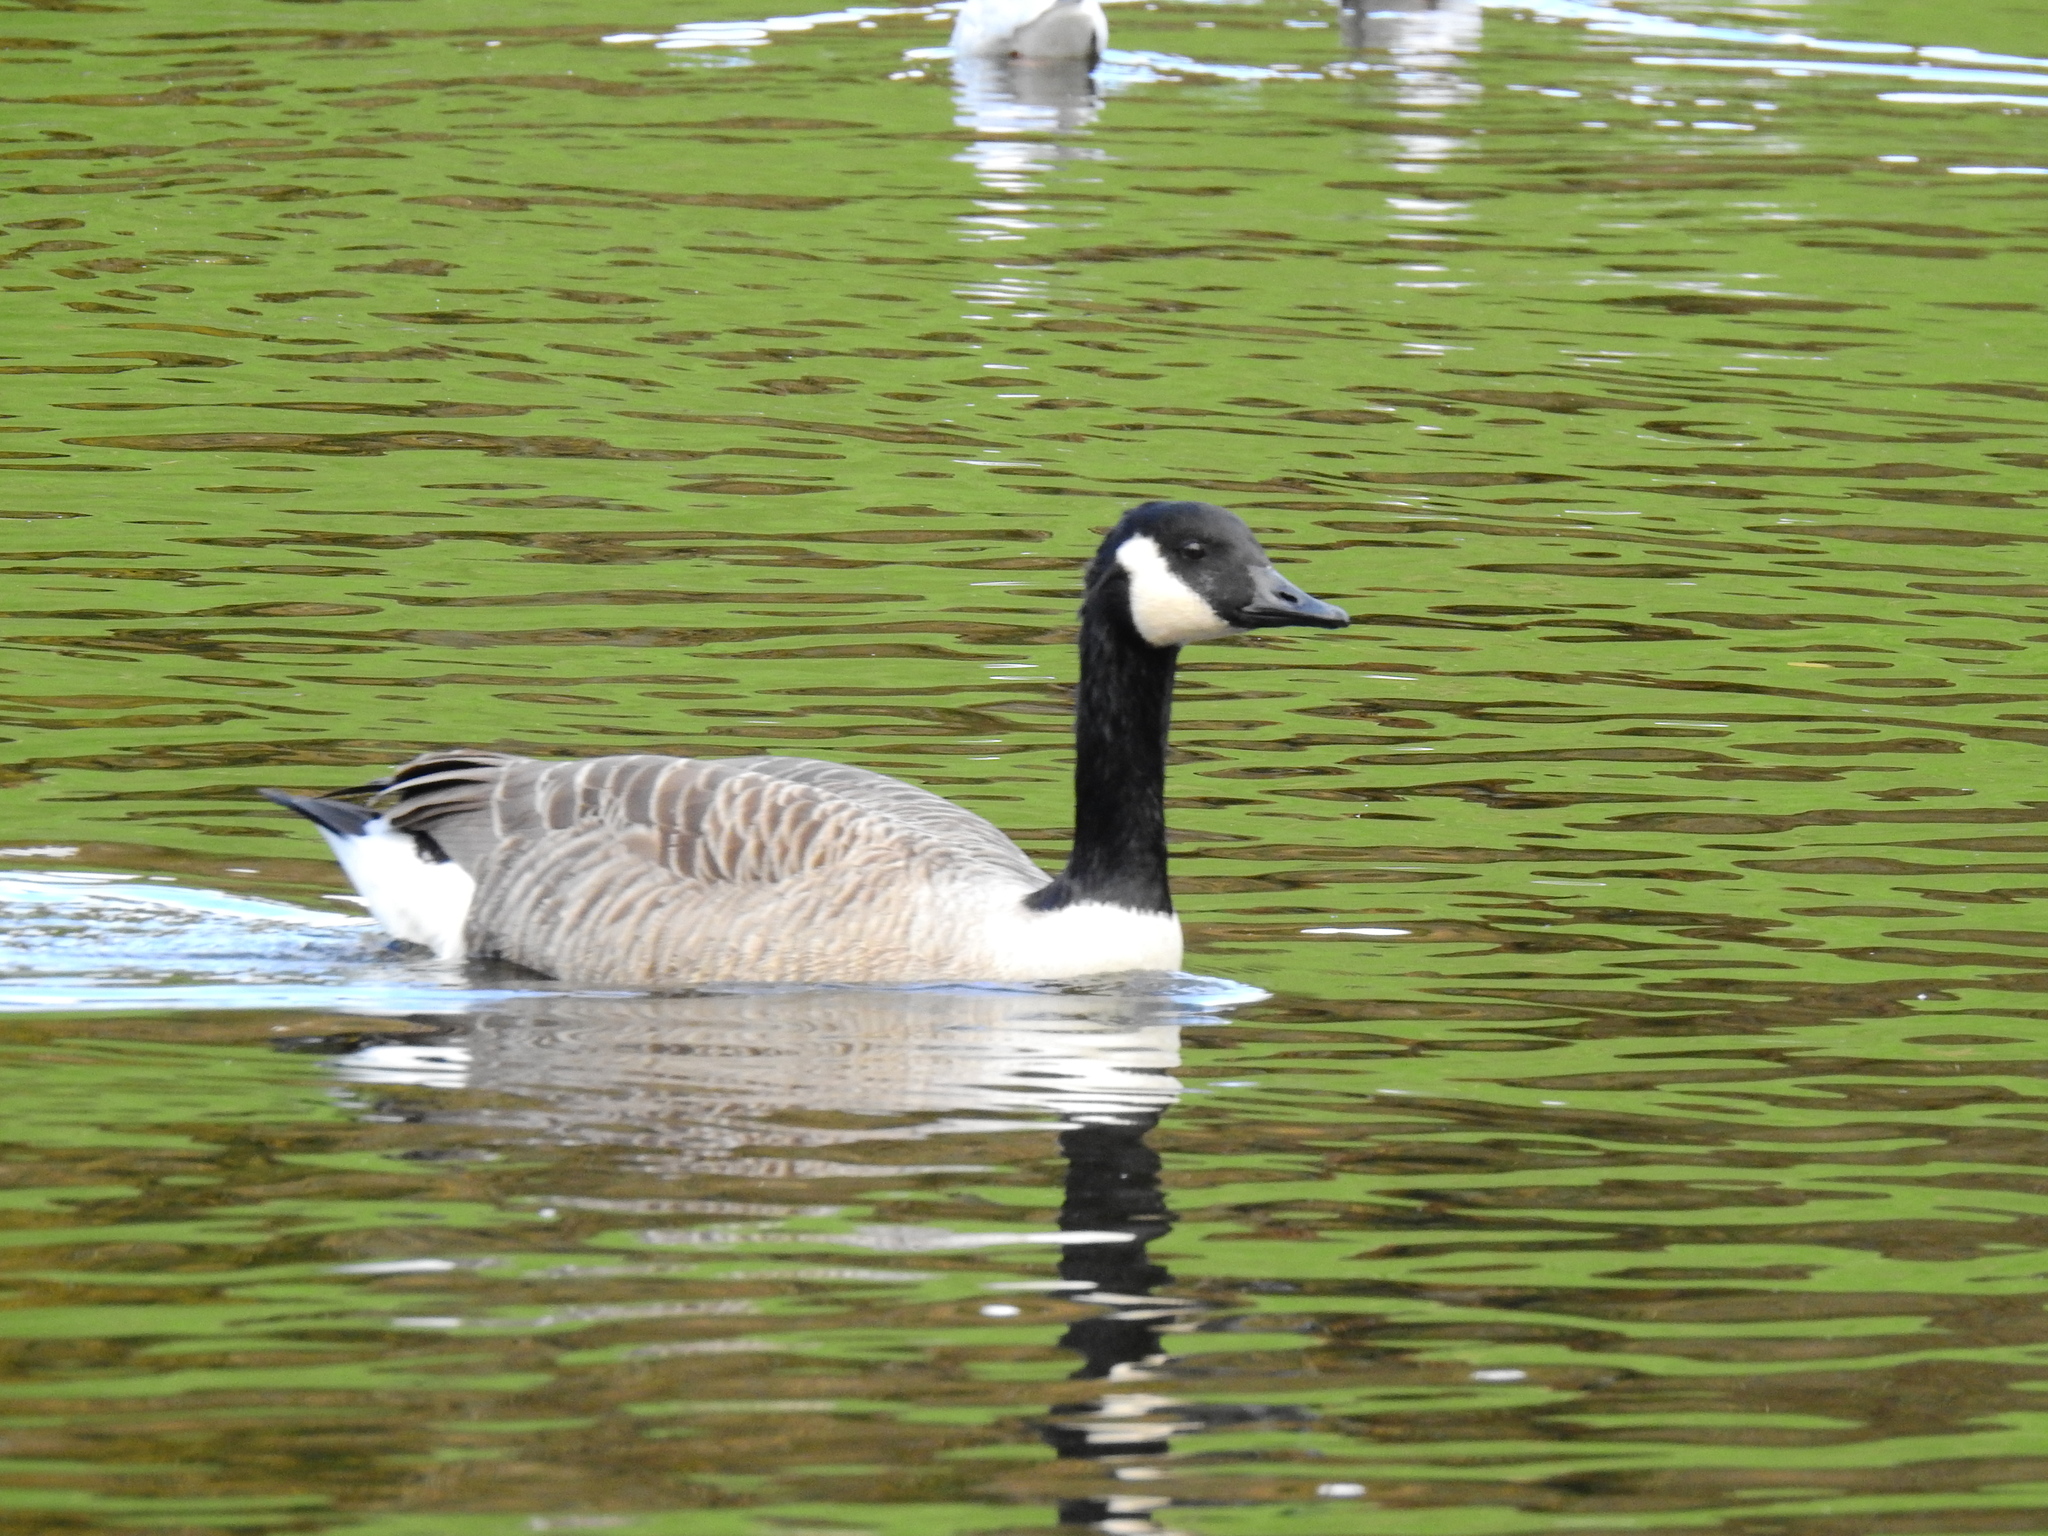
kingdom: Animalia
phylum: Chordata
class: Aves
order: Anseriformes
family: Anatidae
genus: Branta
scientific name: Branta canadensis
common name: Canada goose
